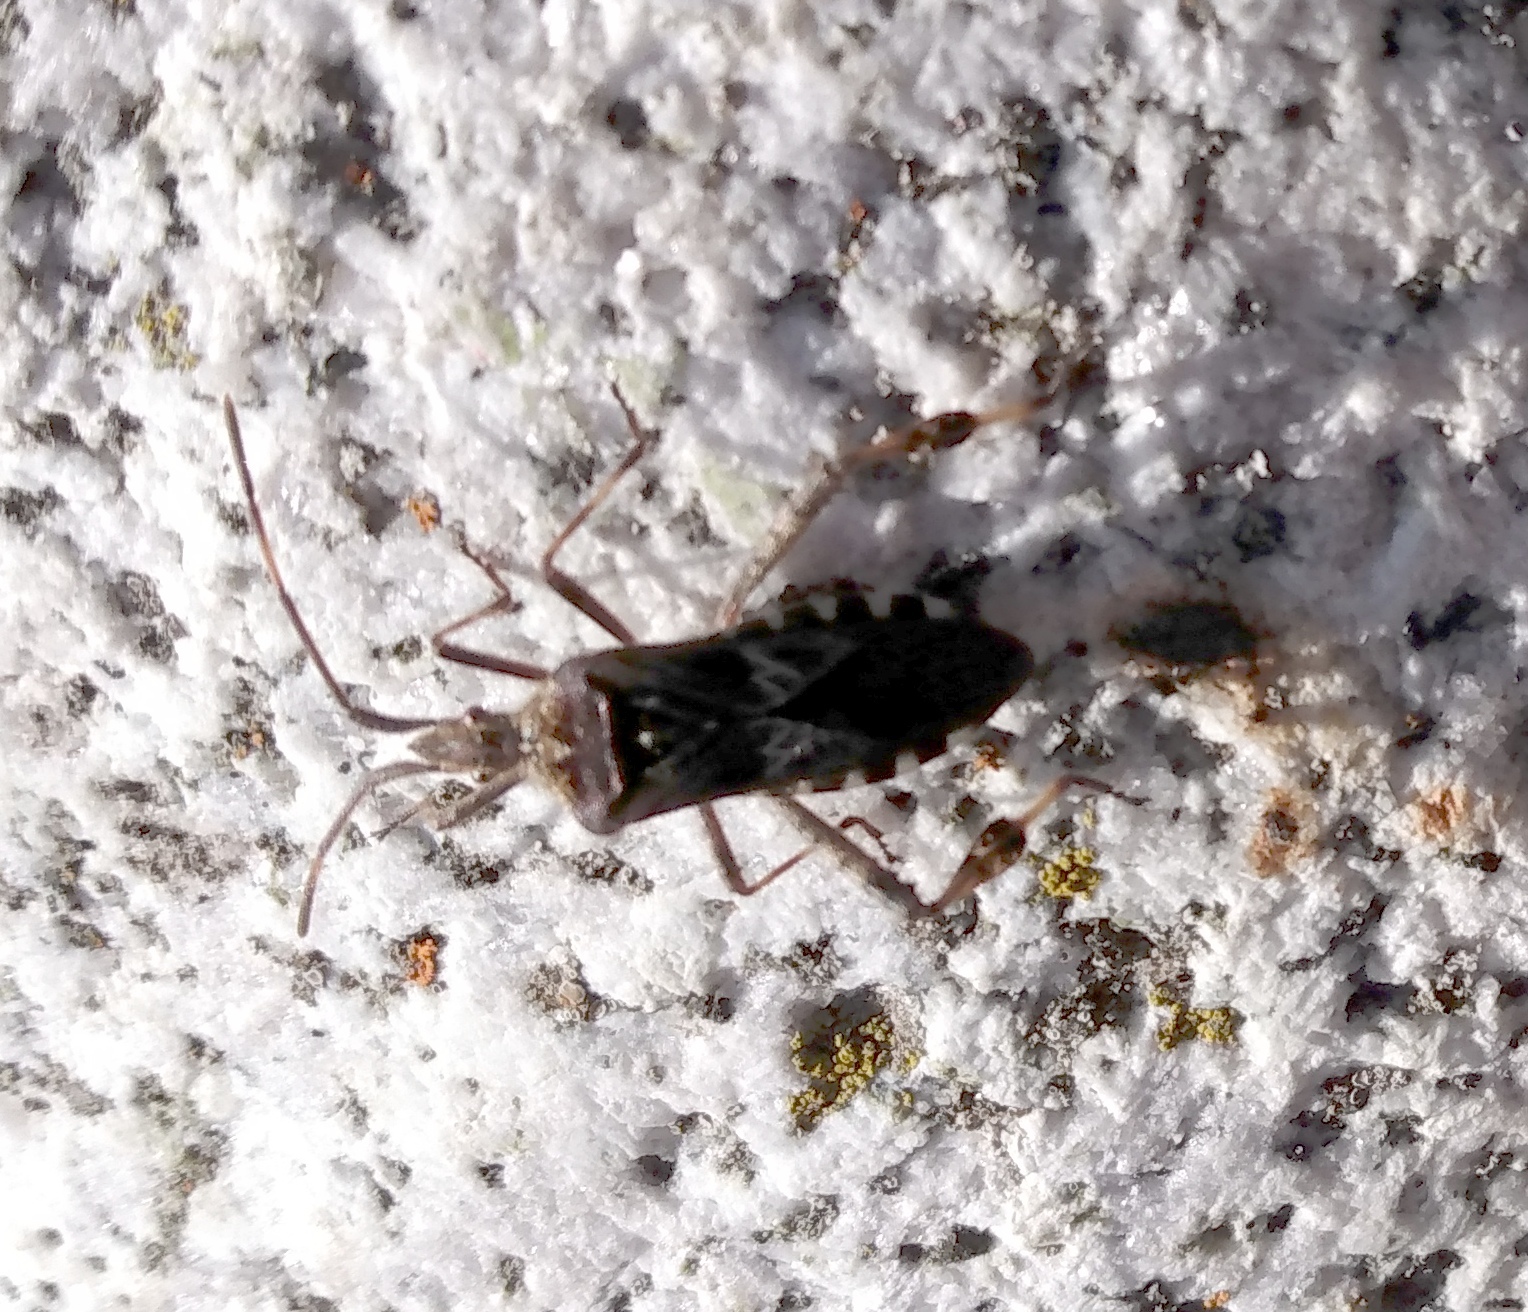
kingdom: Animalia
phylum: Arthropoda
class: Insecta
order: Hemiptera
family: Coreidae
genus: Leptoglossus
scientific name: Leptoglossus occidentalis
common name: Western conifer-seed bug
